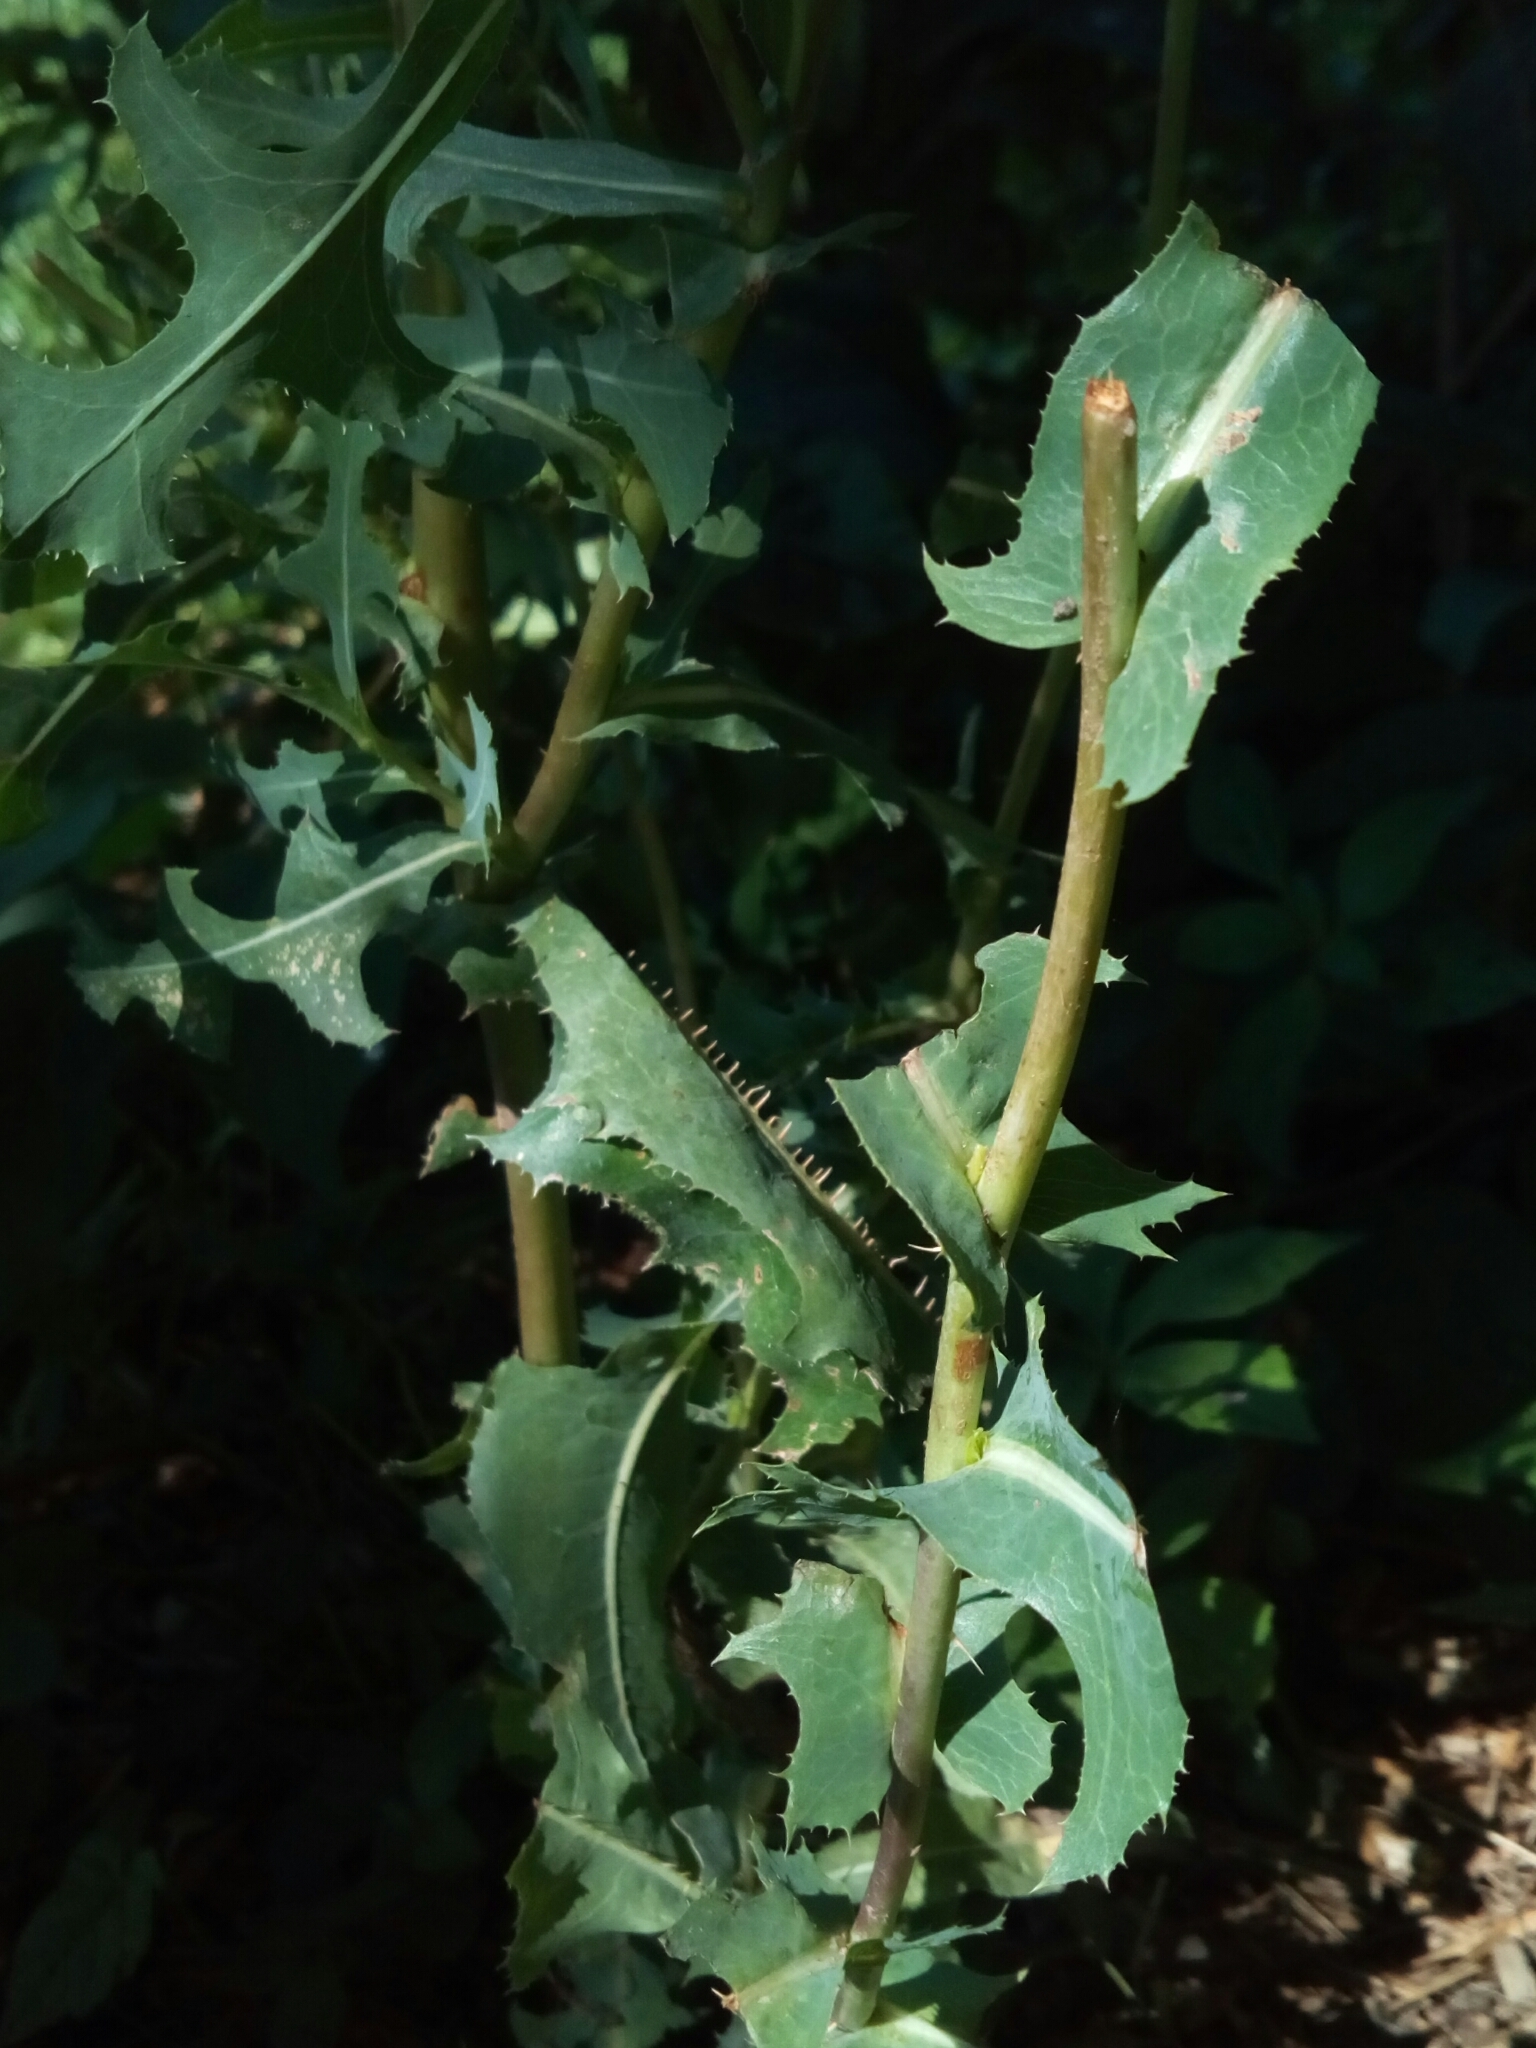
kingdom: Plantae
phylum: Tracheophyta
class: Magnoliopsida
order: Asterales
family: Asteraceae
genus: Lactuca
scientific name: Lactuca serriola
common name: Prickly lettuce
